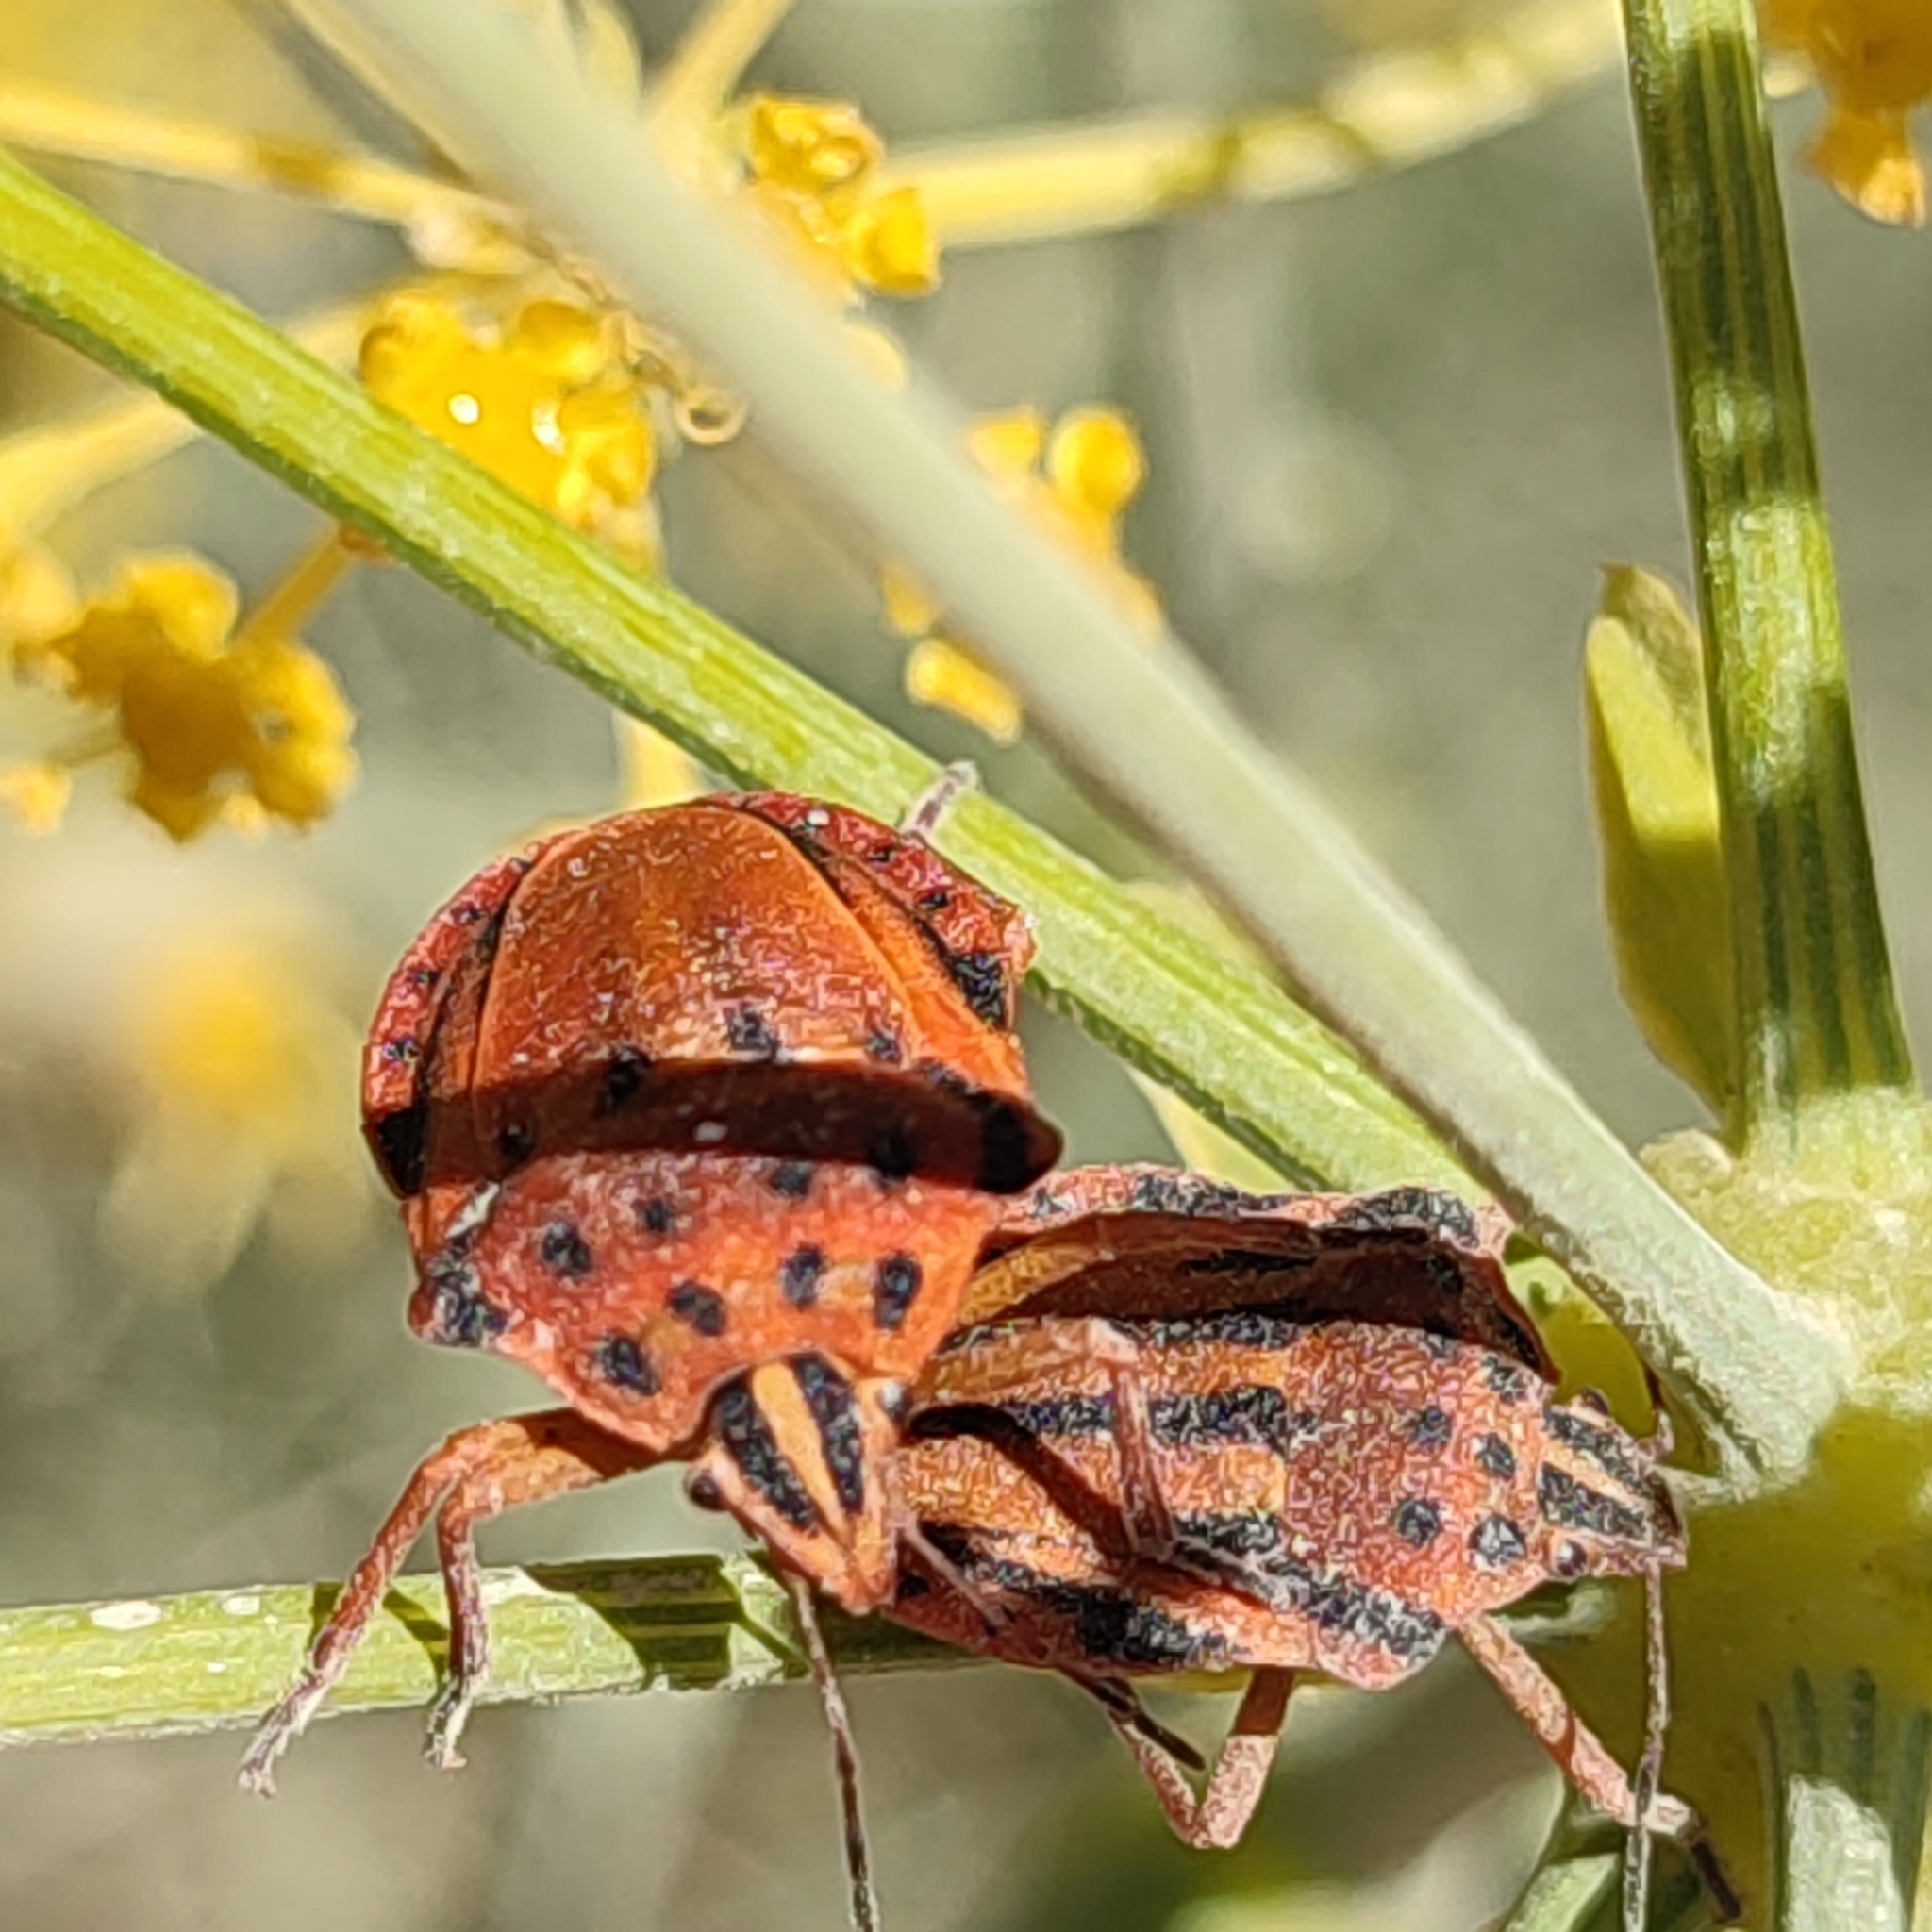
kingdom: Animalia
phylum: Arthropoda
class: Insecta
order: Hemiptera
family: Pentatomidae
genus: Graphosoma
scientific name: Graphosoma semipunctatum
